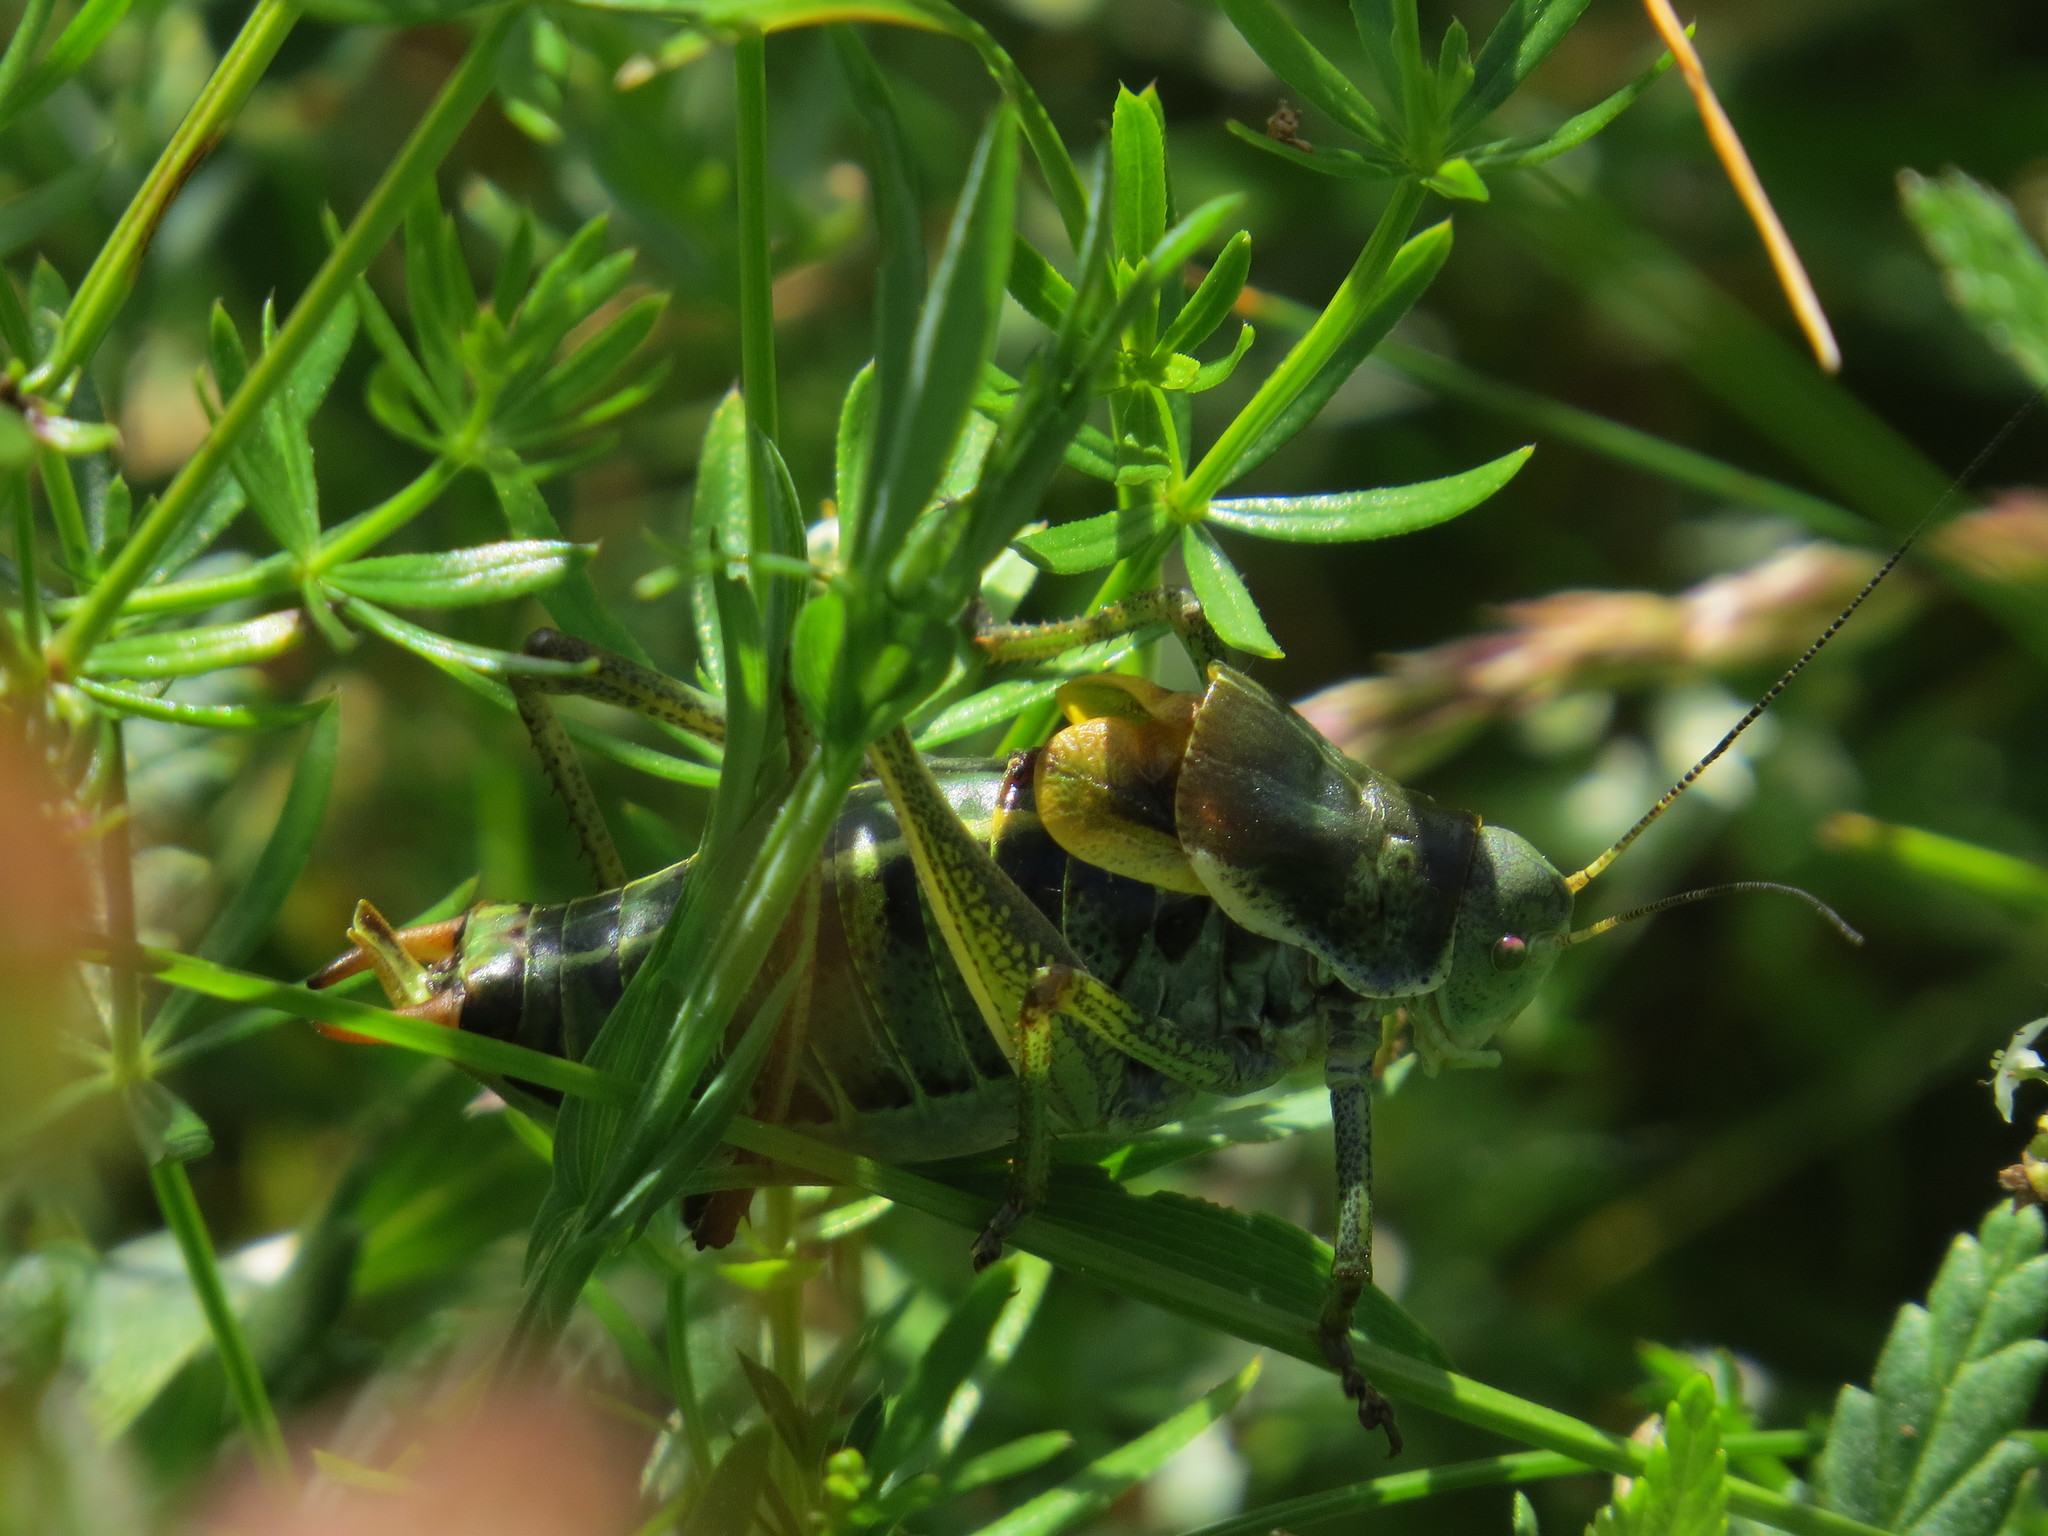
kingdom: Animalia
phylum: Arthropoda
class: Insecta
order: Orthoptera
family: Tettigoniidae
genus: Polysarcus
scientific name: Polysarcus denticauda
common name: Large saw-tailed bush-cricket
